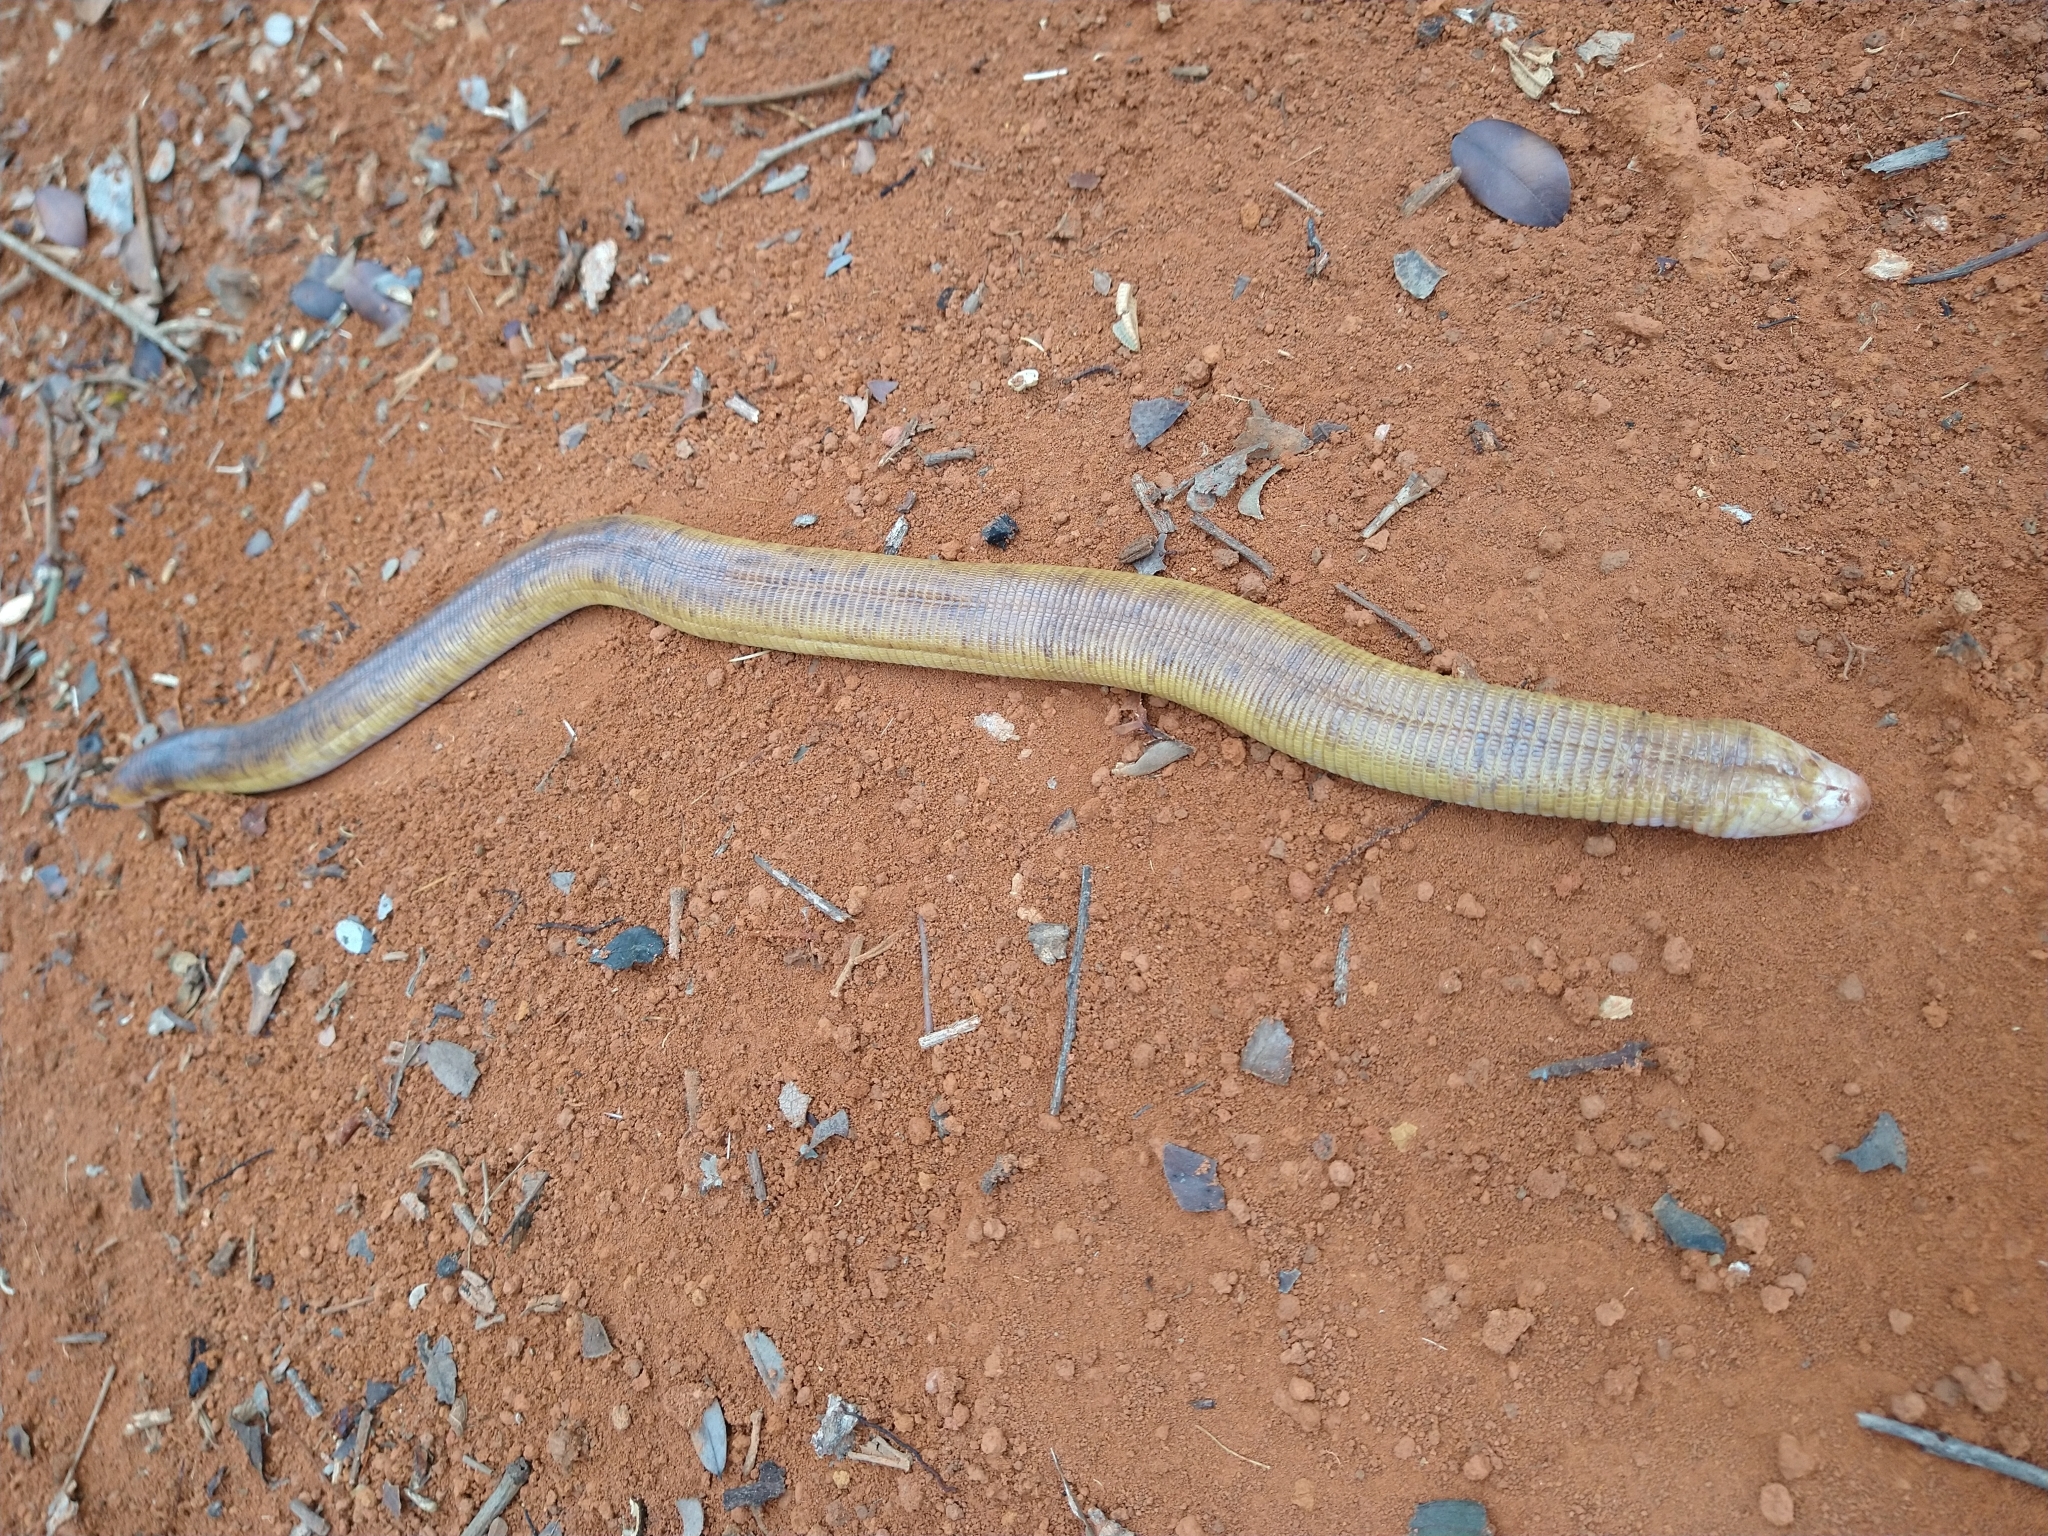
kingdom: Animalia
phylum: Chordata
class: Squamata
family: Amphisbaenidae
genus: Amphisbaena
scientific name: Amphisbaena alba
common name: Red worm lizard
